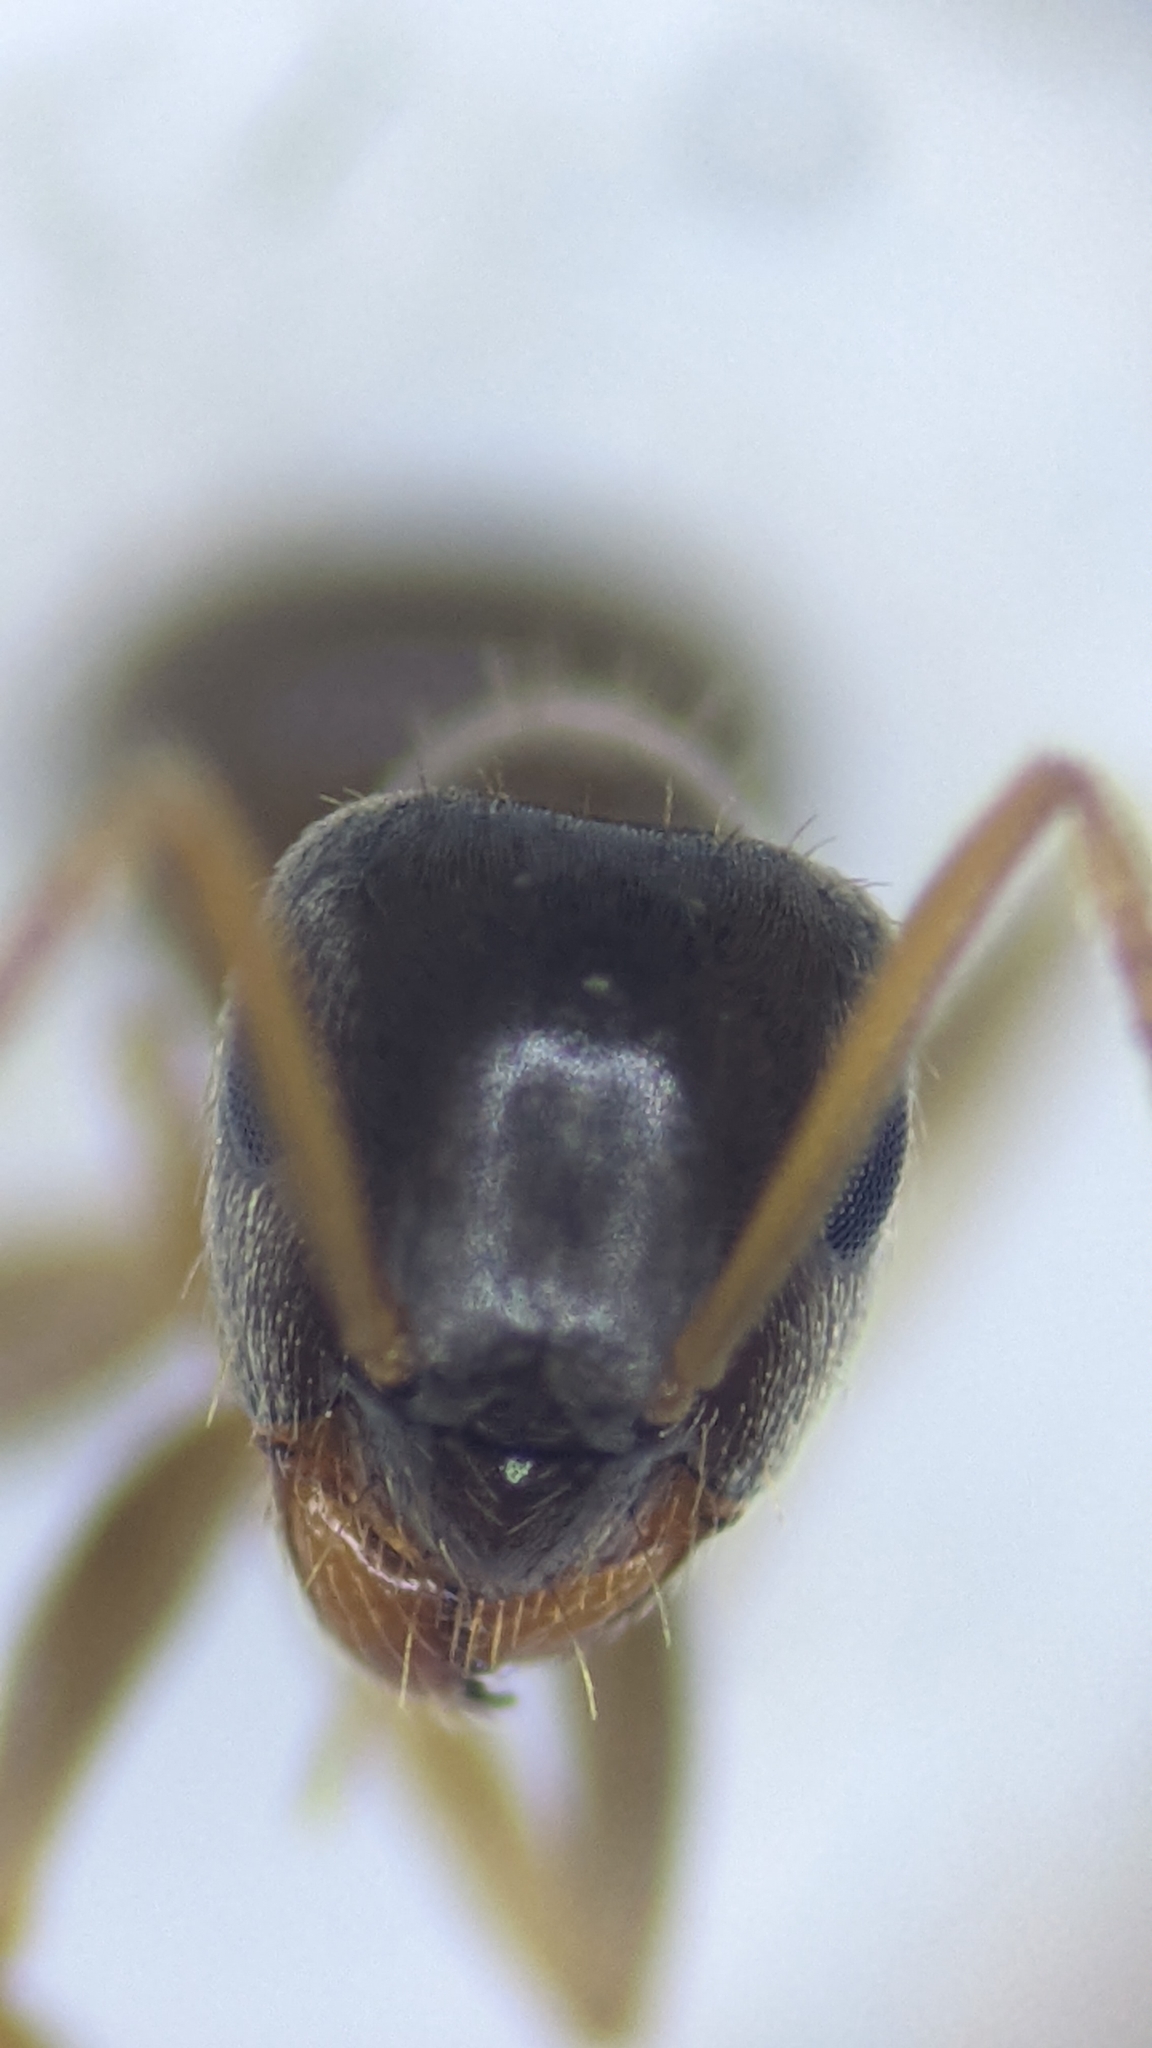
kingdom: Animalia
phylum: Arthropoda
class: Insecta
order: Hymenoptera
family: Formicidae
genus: Lasius
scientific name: Lasius neglectus
